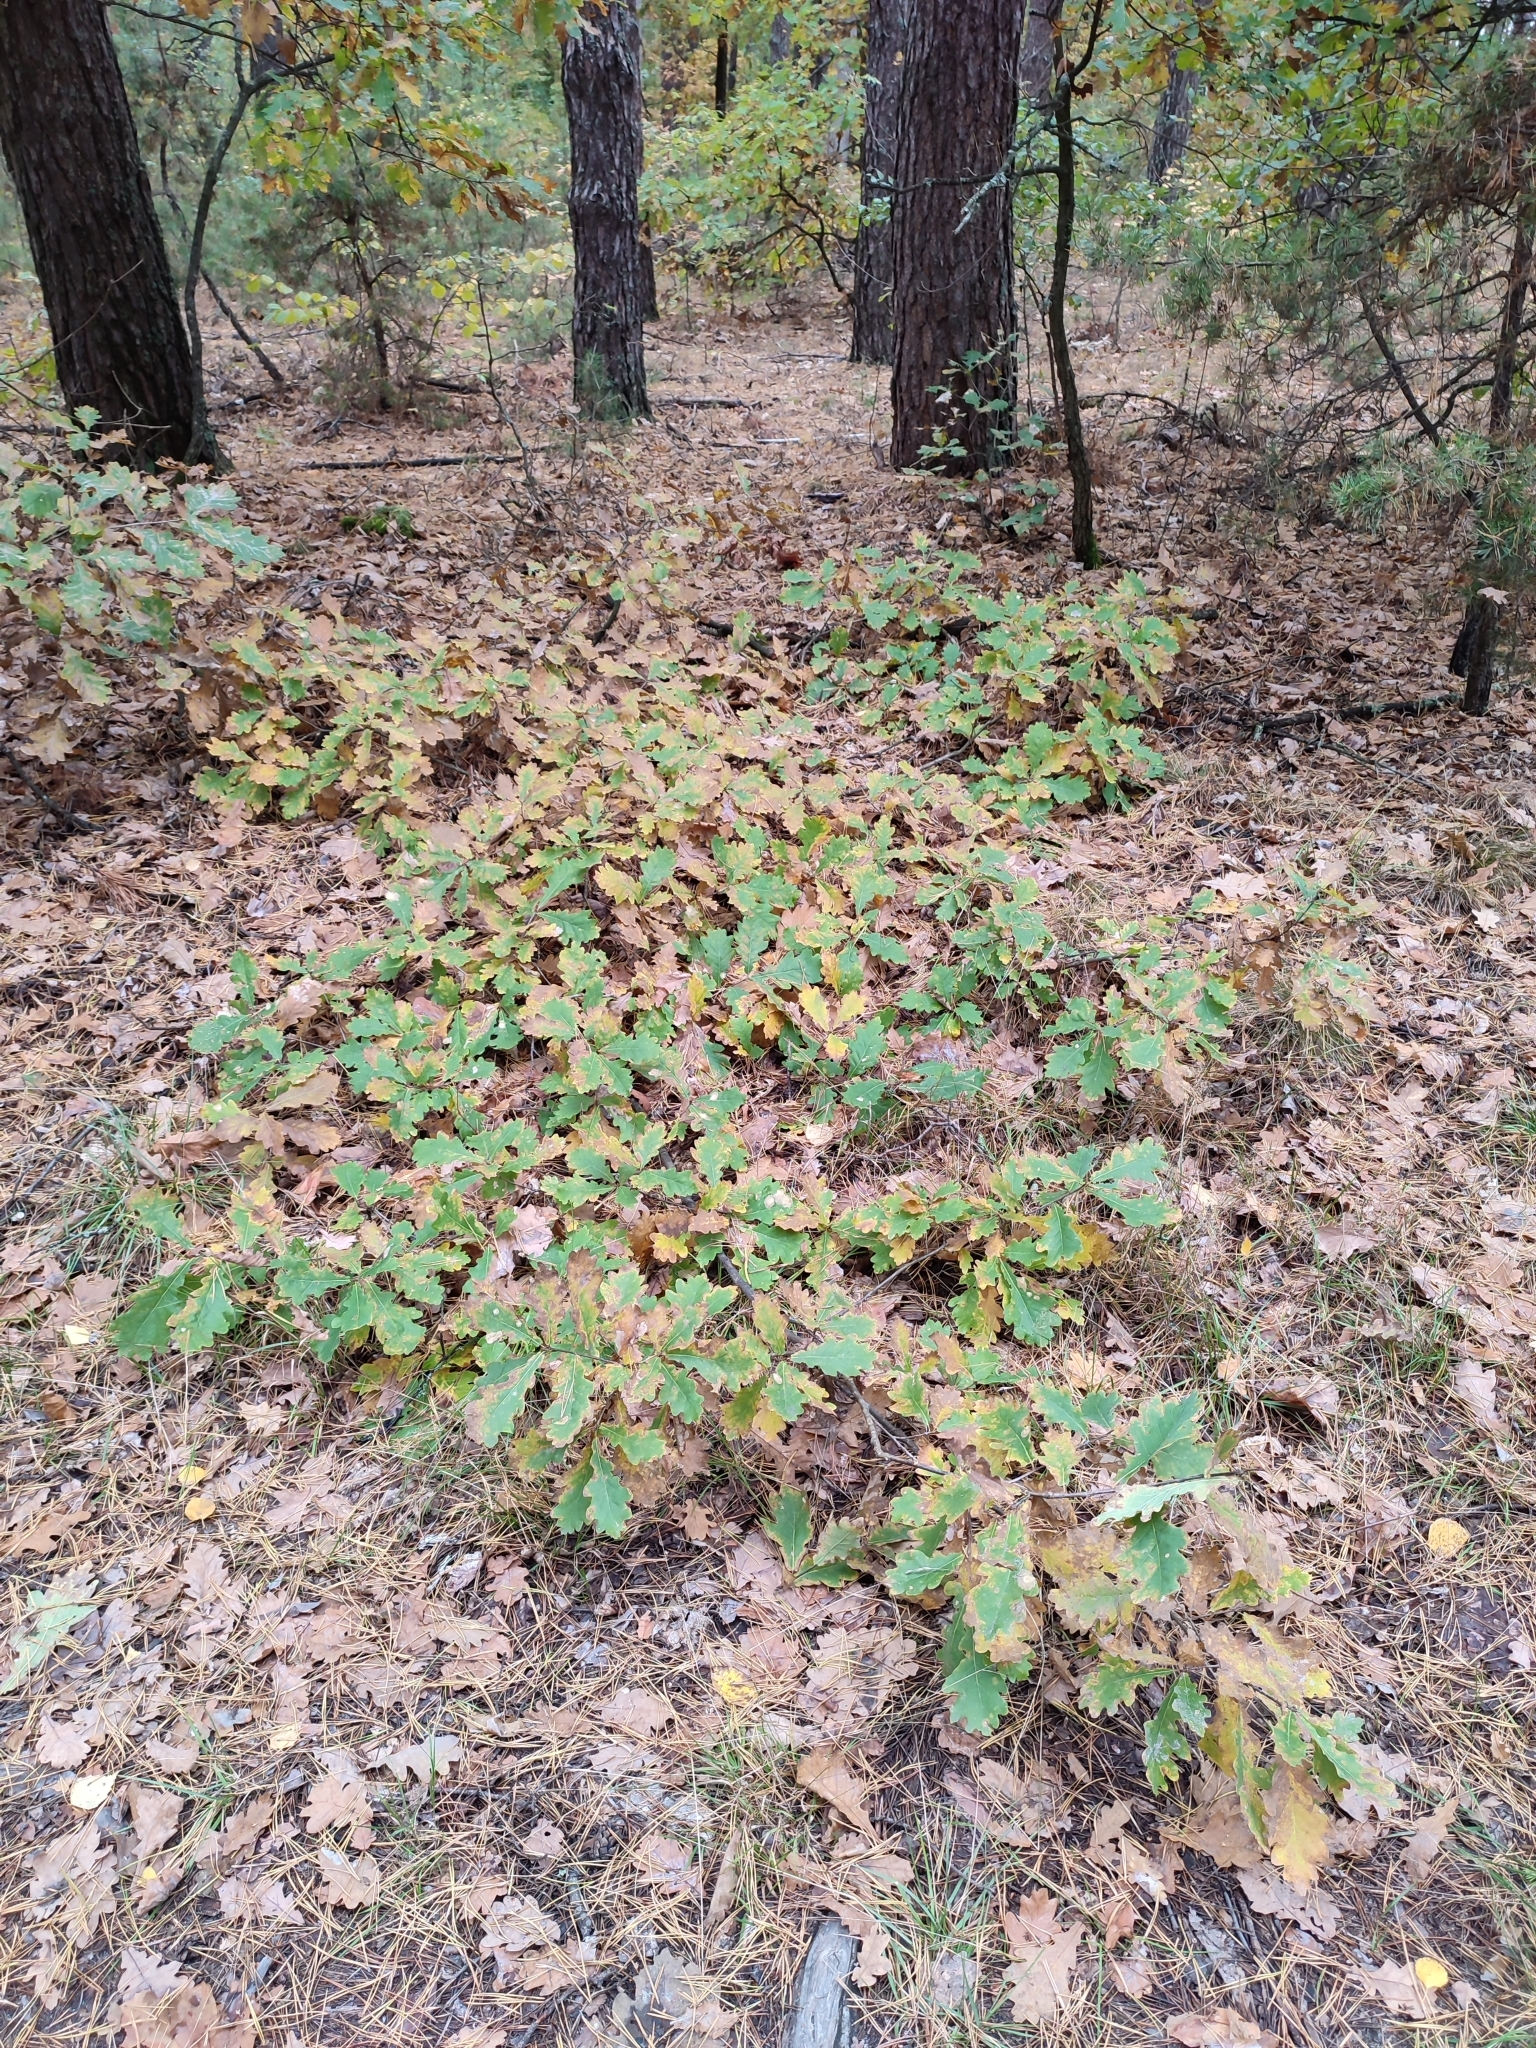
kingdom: Plantae
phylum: Tracheophyta
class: Magnoliopsida
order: Fagales
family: Fagaceae
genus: Quercus
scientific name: Quercus robur
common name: Pedunculate oak
